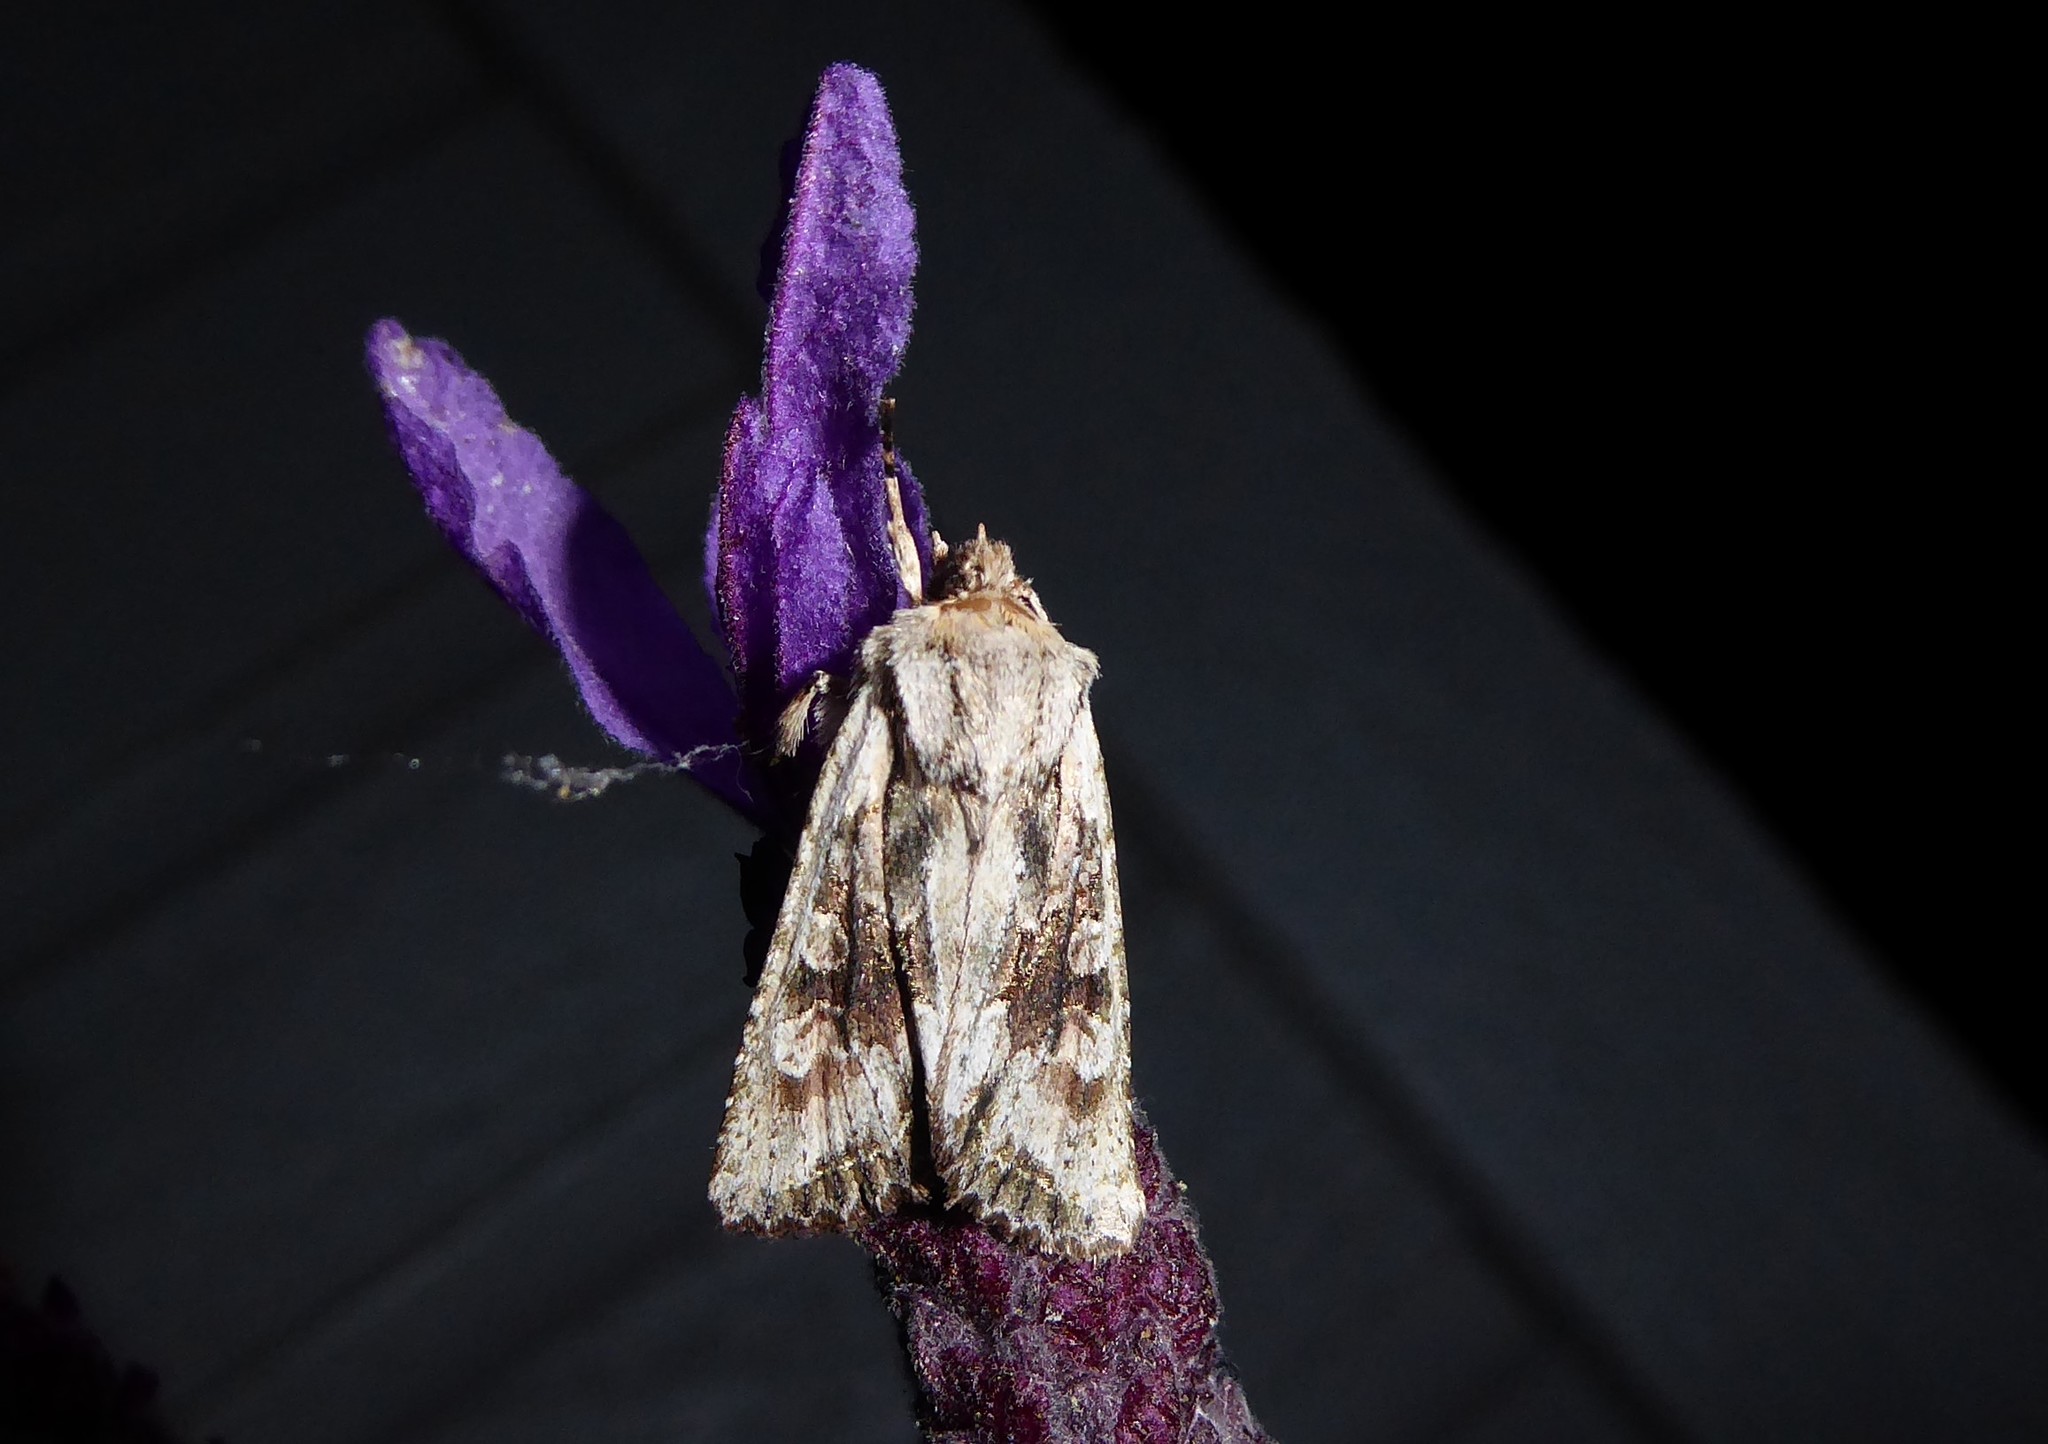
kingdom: Animalia
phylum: Arthropoda
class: Insecta
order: Lepidoptera
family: Noctuidae
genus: Ichneutica
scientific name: Ichneutica mutans
